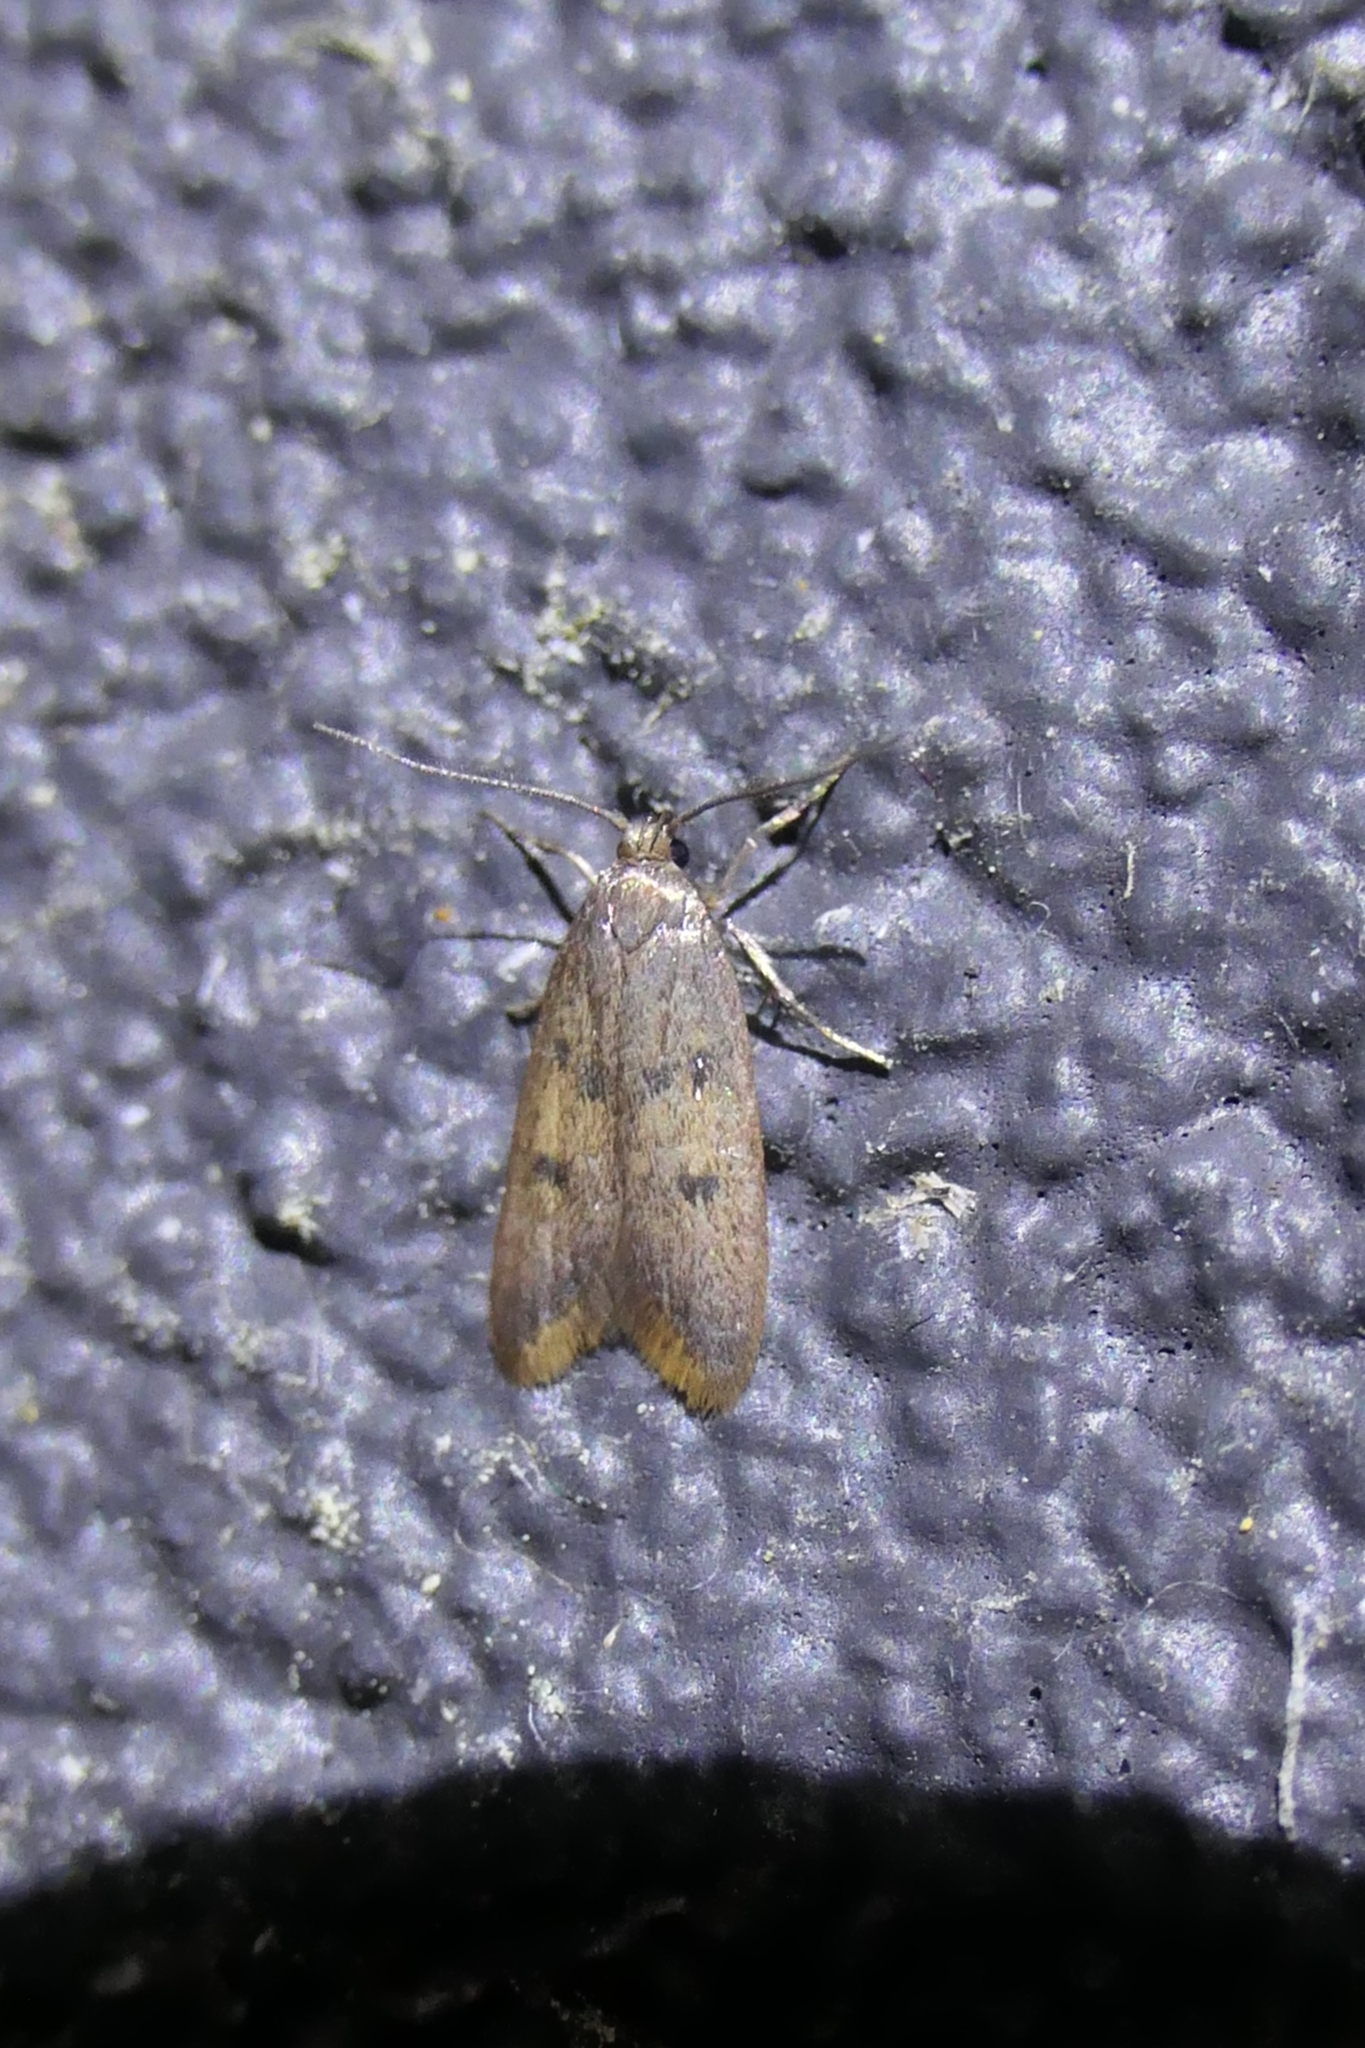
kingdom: Animalia
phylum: Arthropoda
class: Insecta
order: Lepidoptera
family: Oecophoridae
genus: Tachystola
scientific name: Tachystola acroxantha
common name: Ruddy streak
